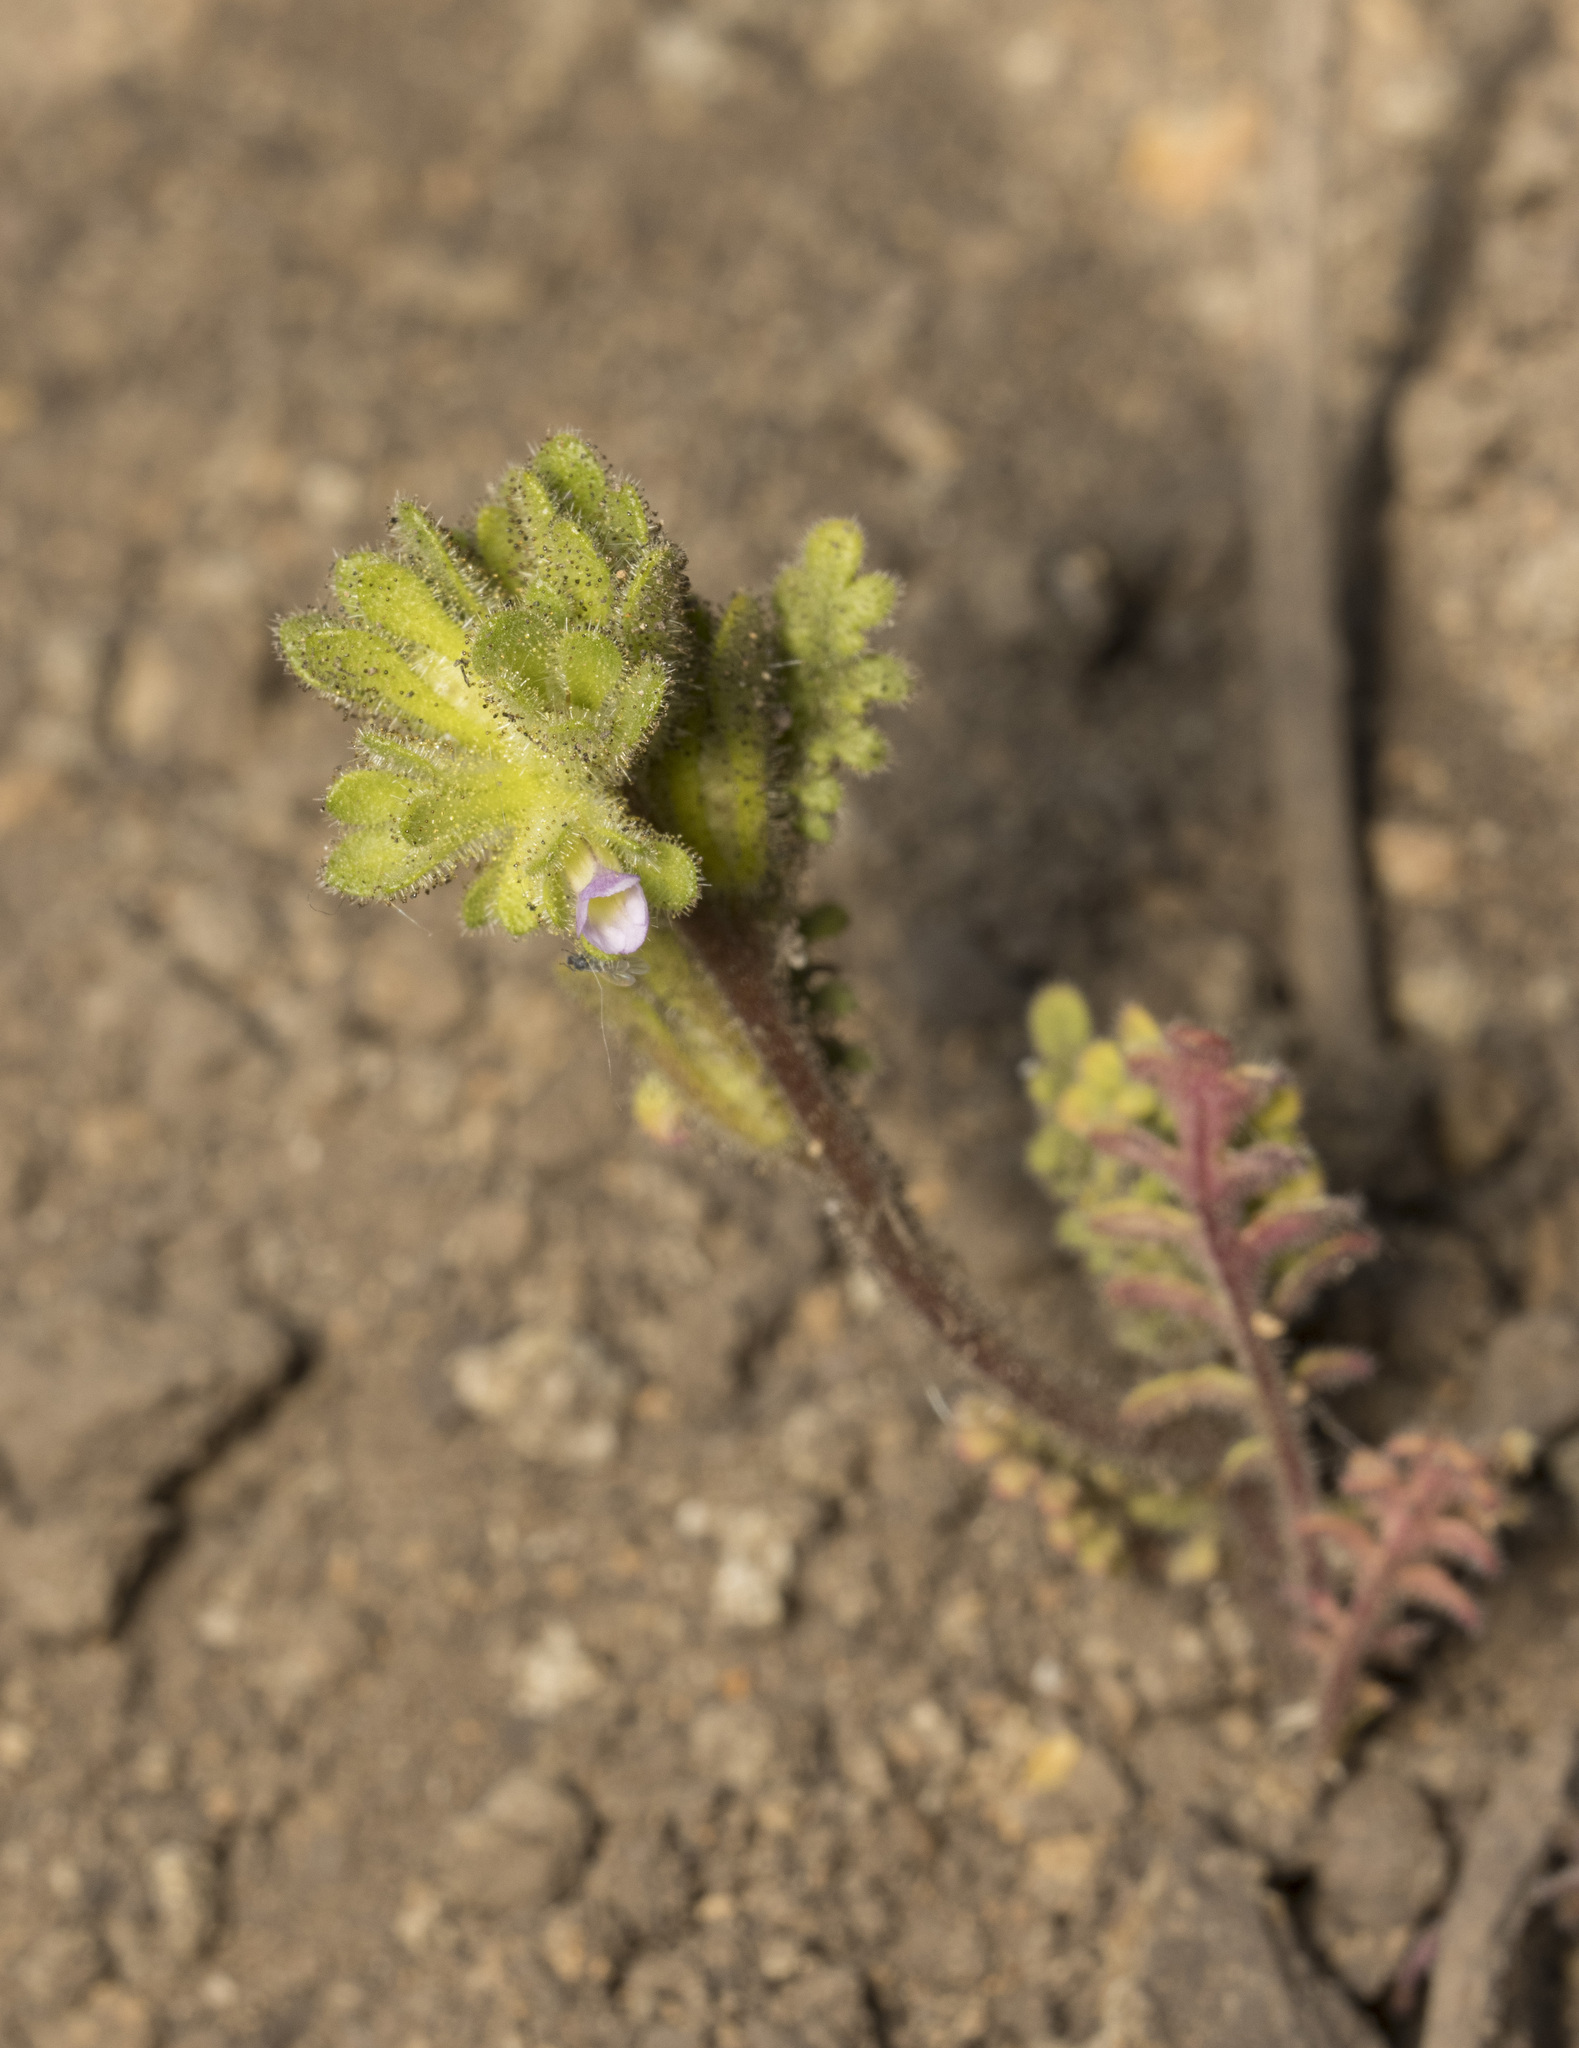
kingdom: Plantae
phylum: Tracheophyta
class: Magnoliopsida
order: Boraginales
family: Hydrophyllaceae
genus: Phacelia
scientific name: Phacelia cumingii
